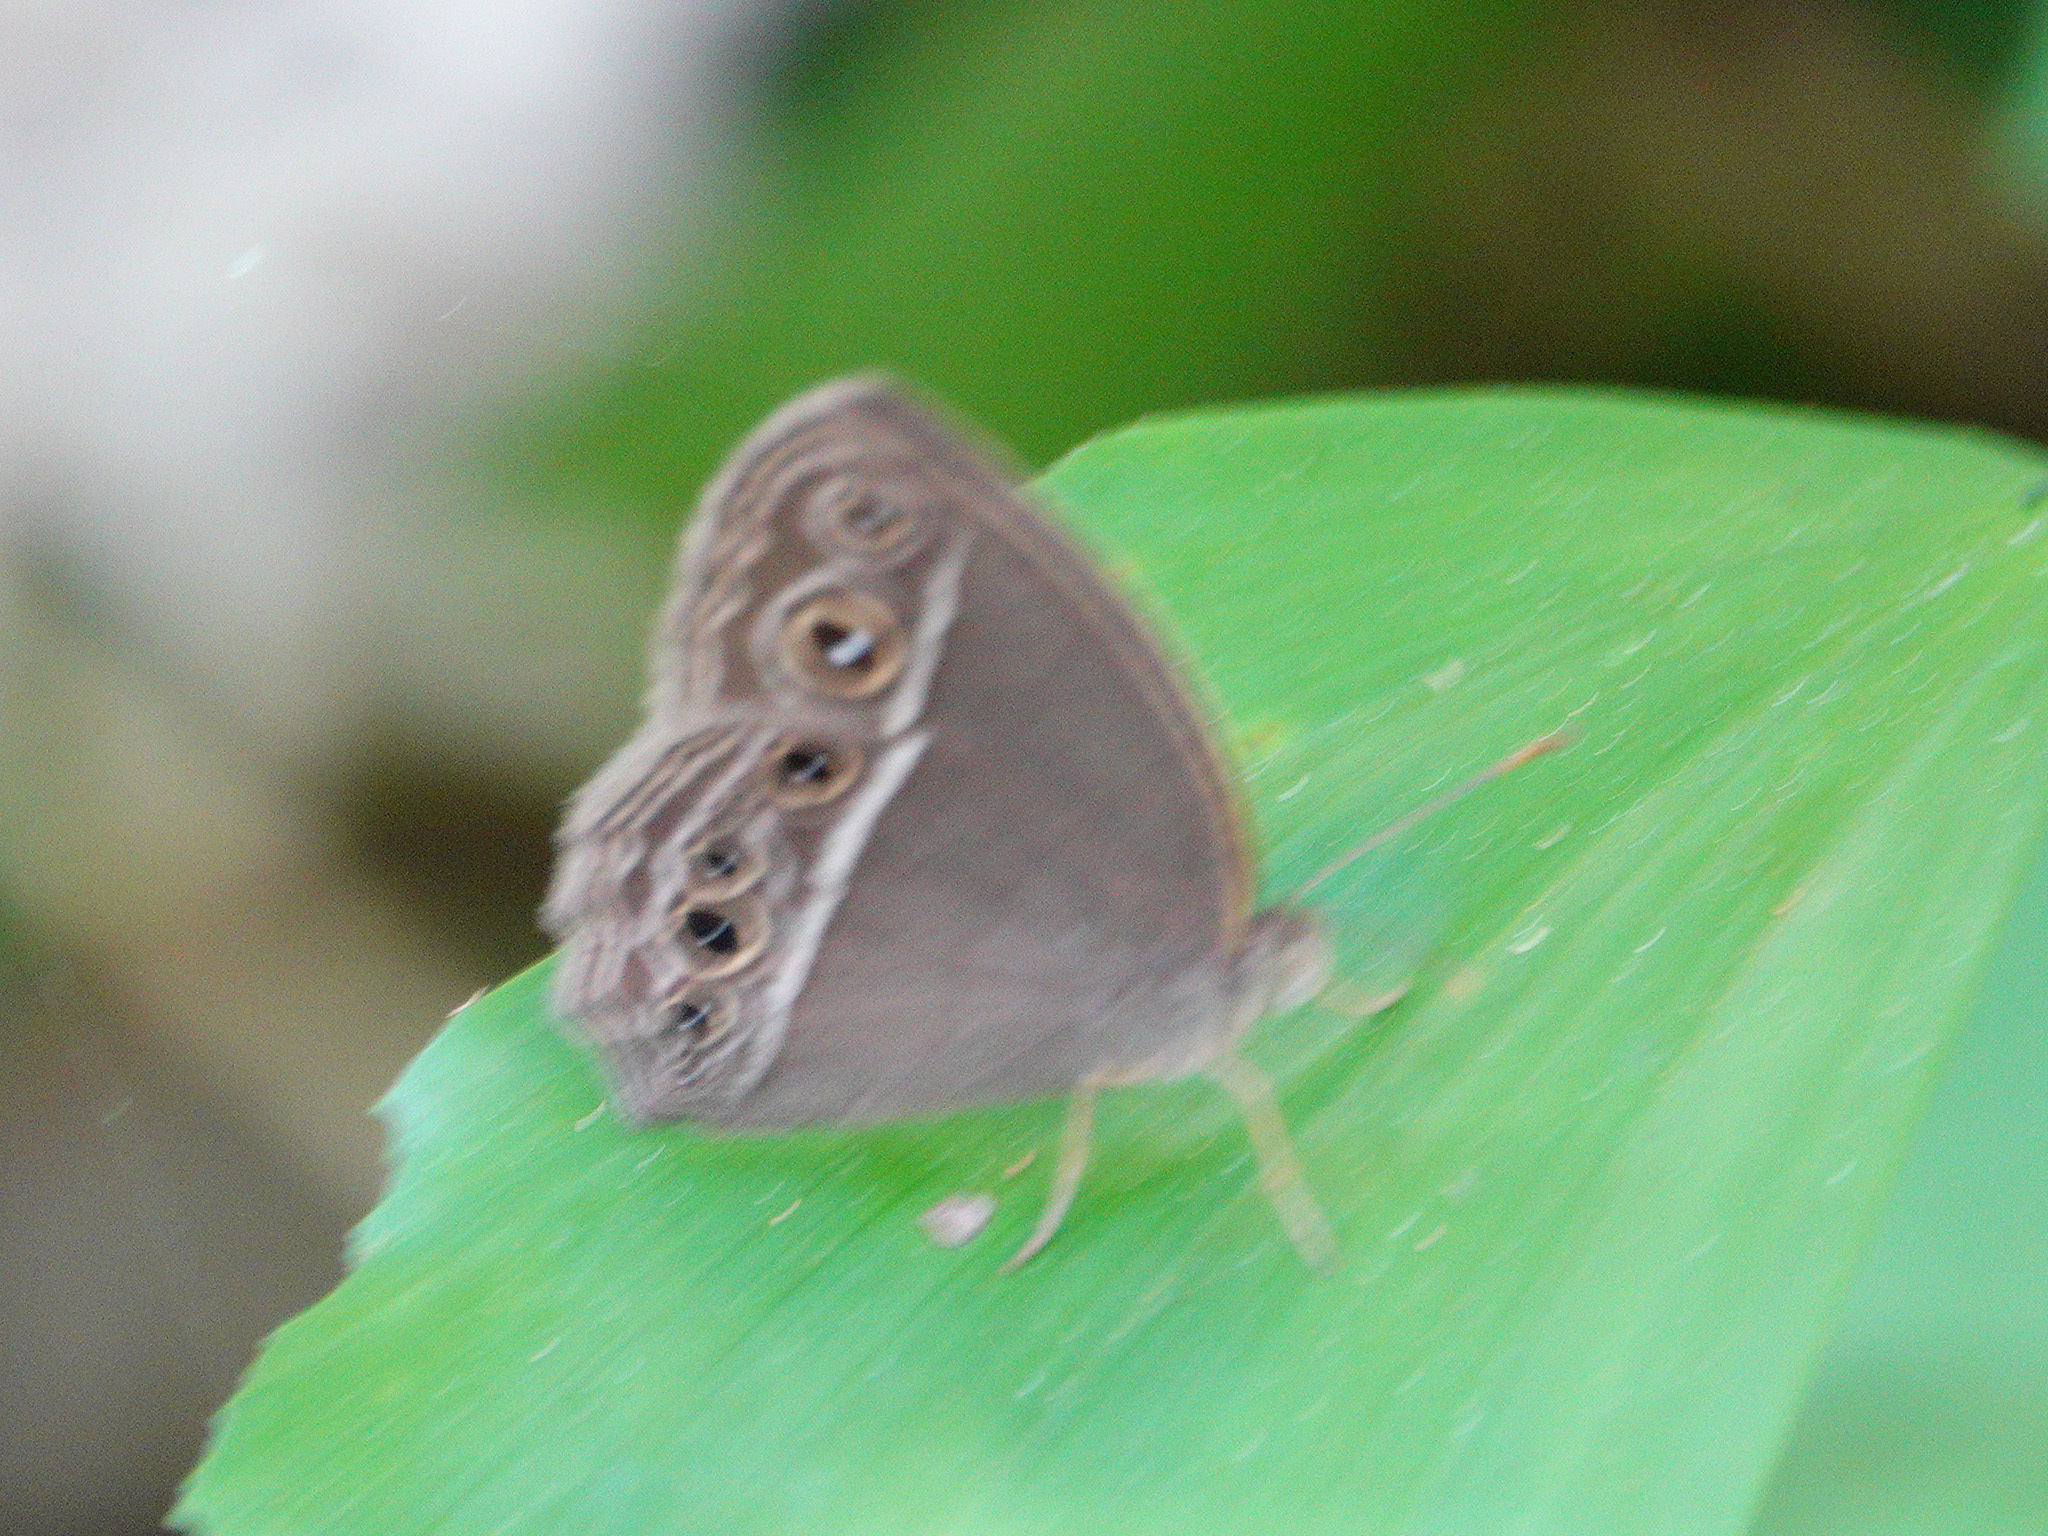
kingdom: Animalia
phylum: Arthropoda
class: Insecta
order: Lepidoptera
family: Nymphalidae
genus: Mycalesis
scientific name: Mycalesis mineus
